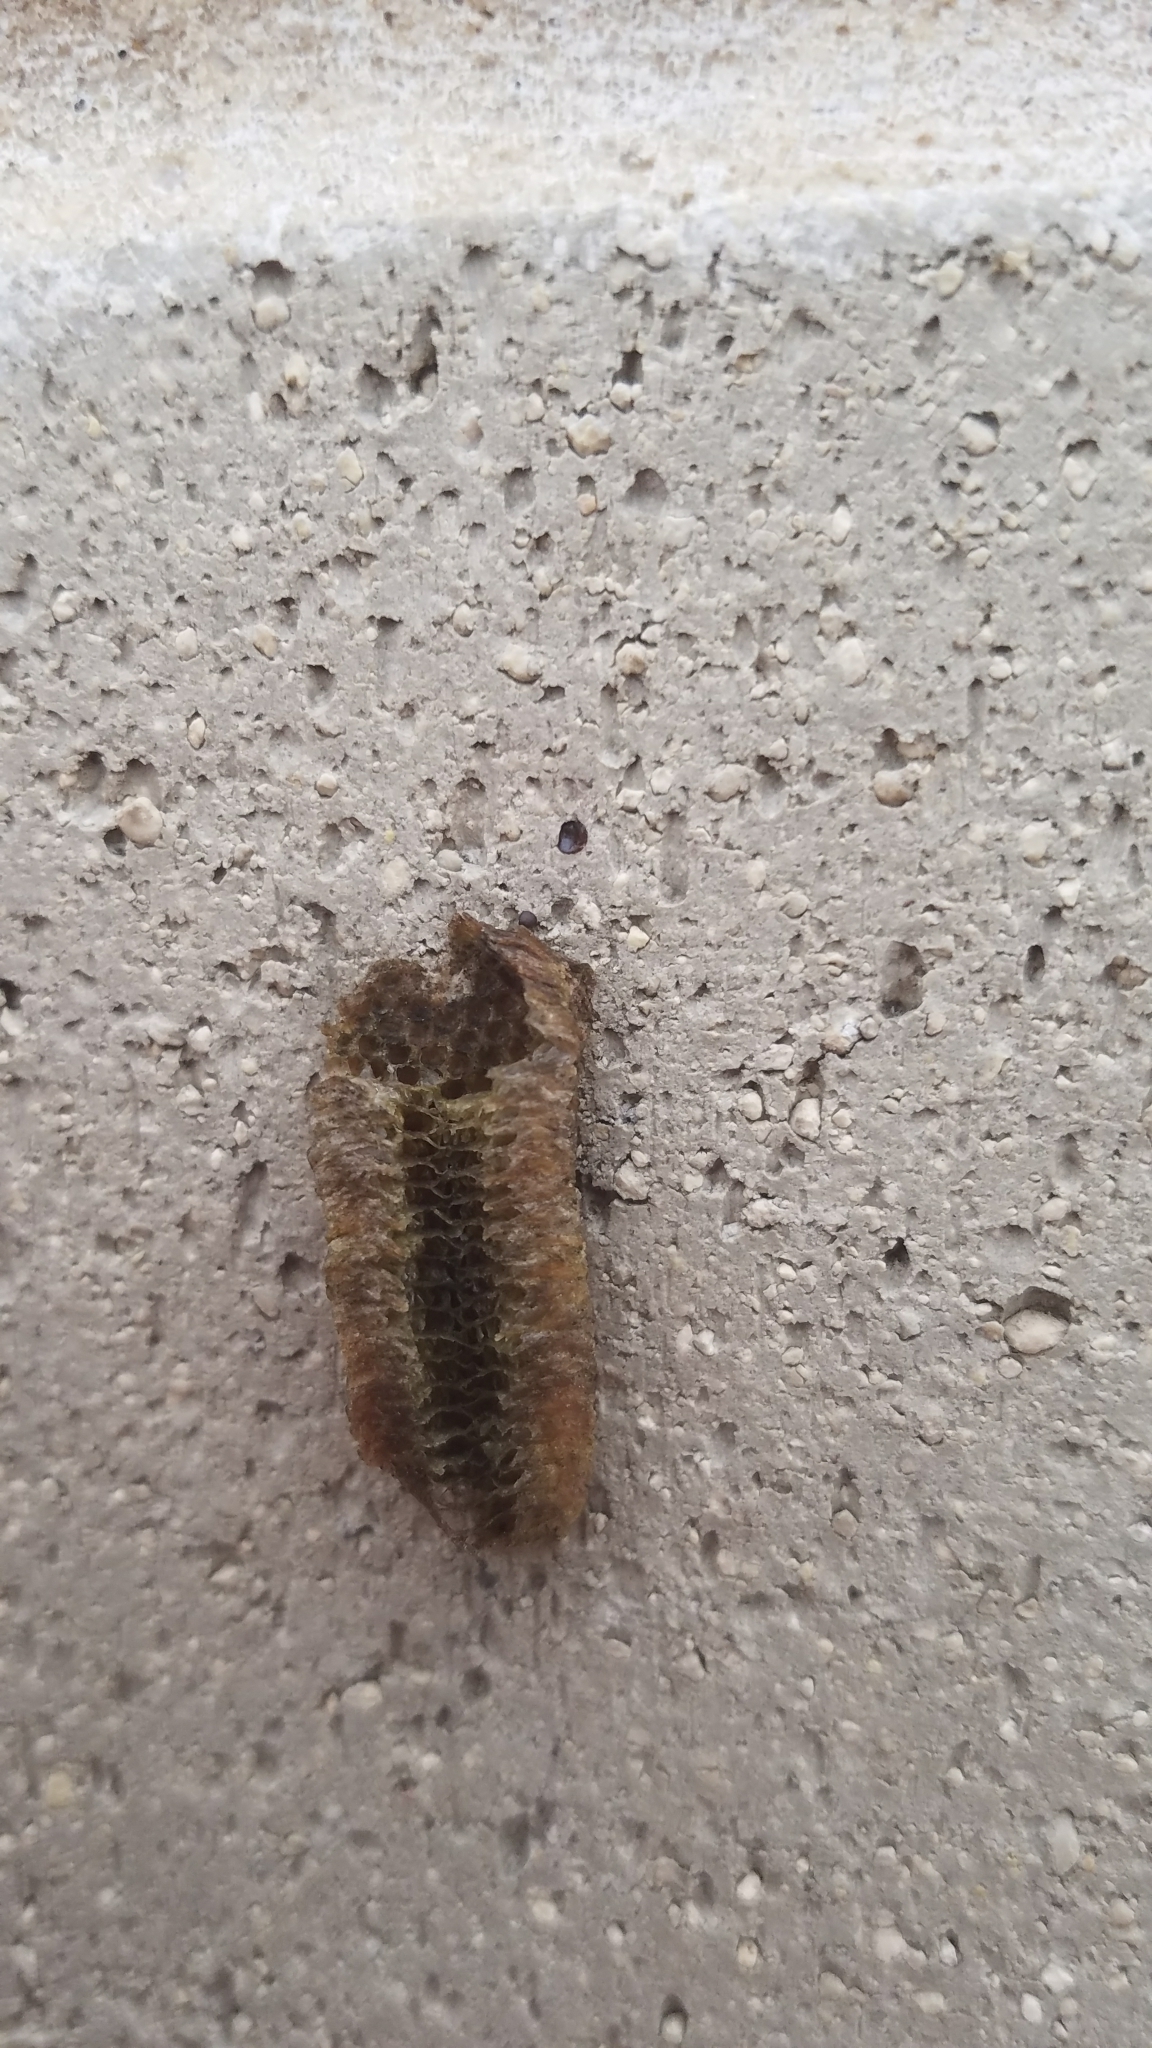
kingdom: Animalia
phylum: Arthropoda
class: Insecta
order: Mantodea
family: Mantidae
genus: Tenodera
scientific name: Tenodera angustipennis
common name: Asian mantis
